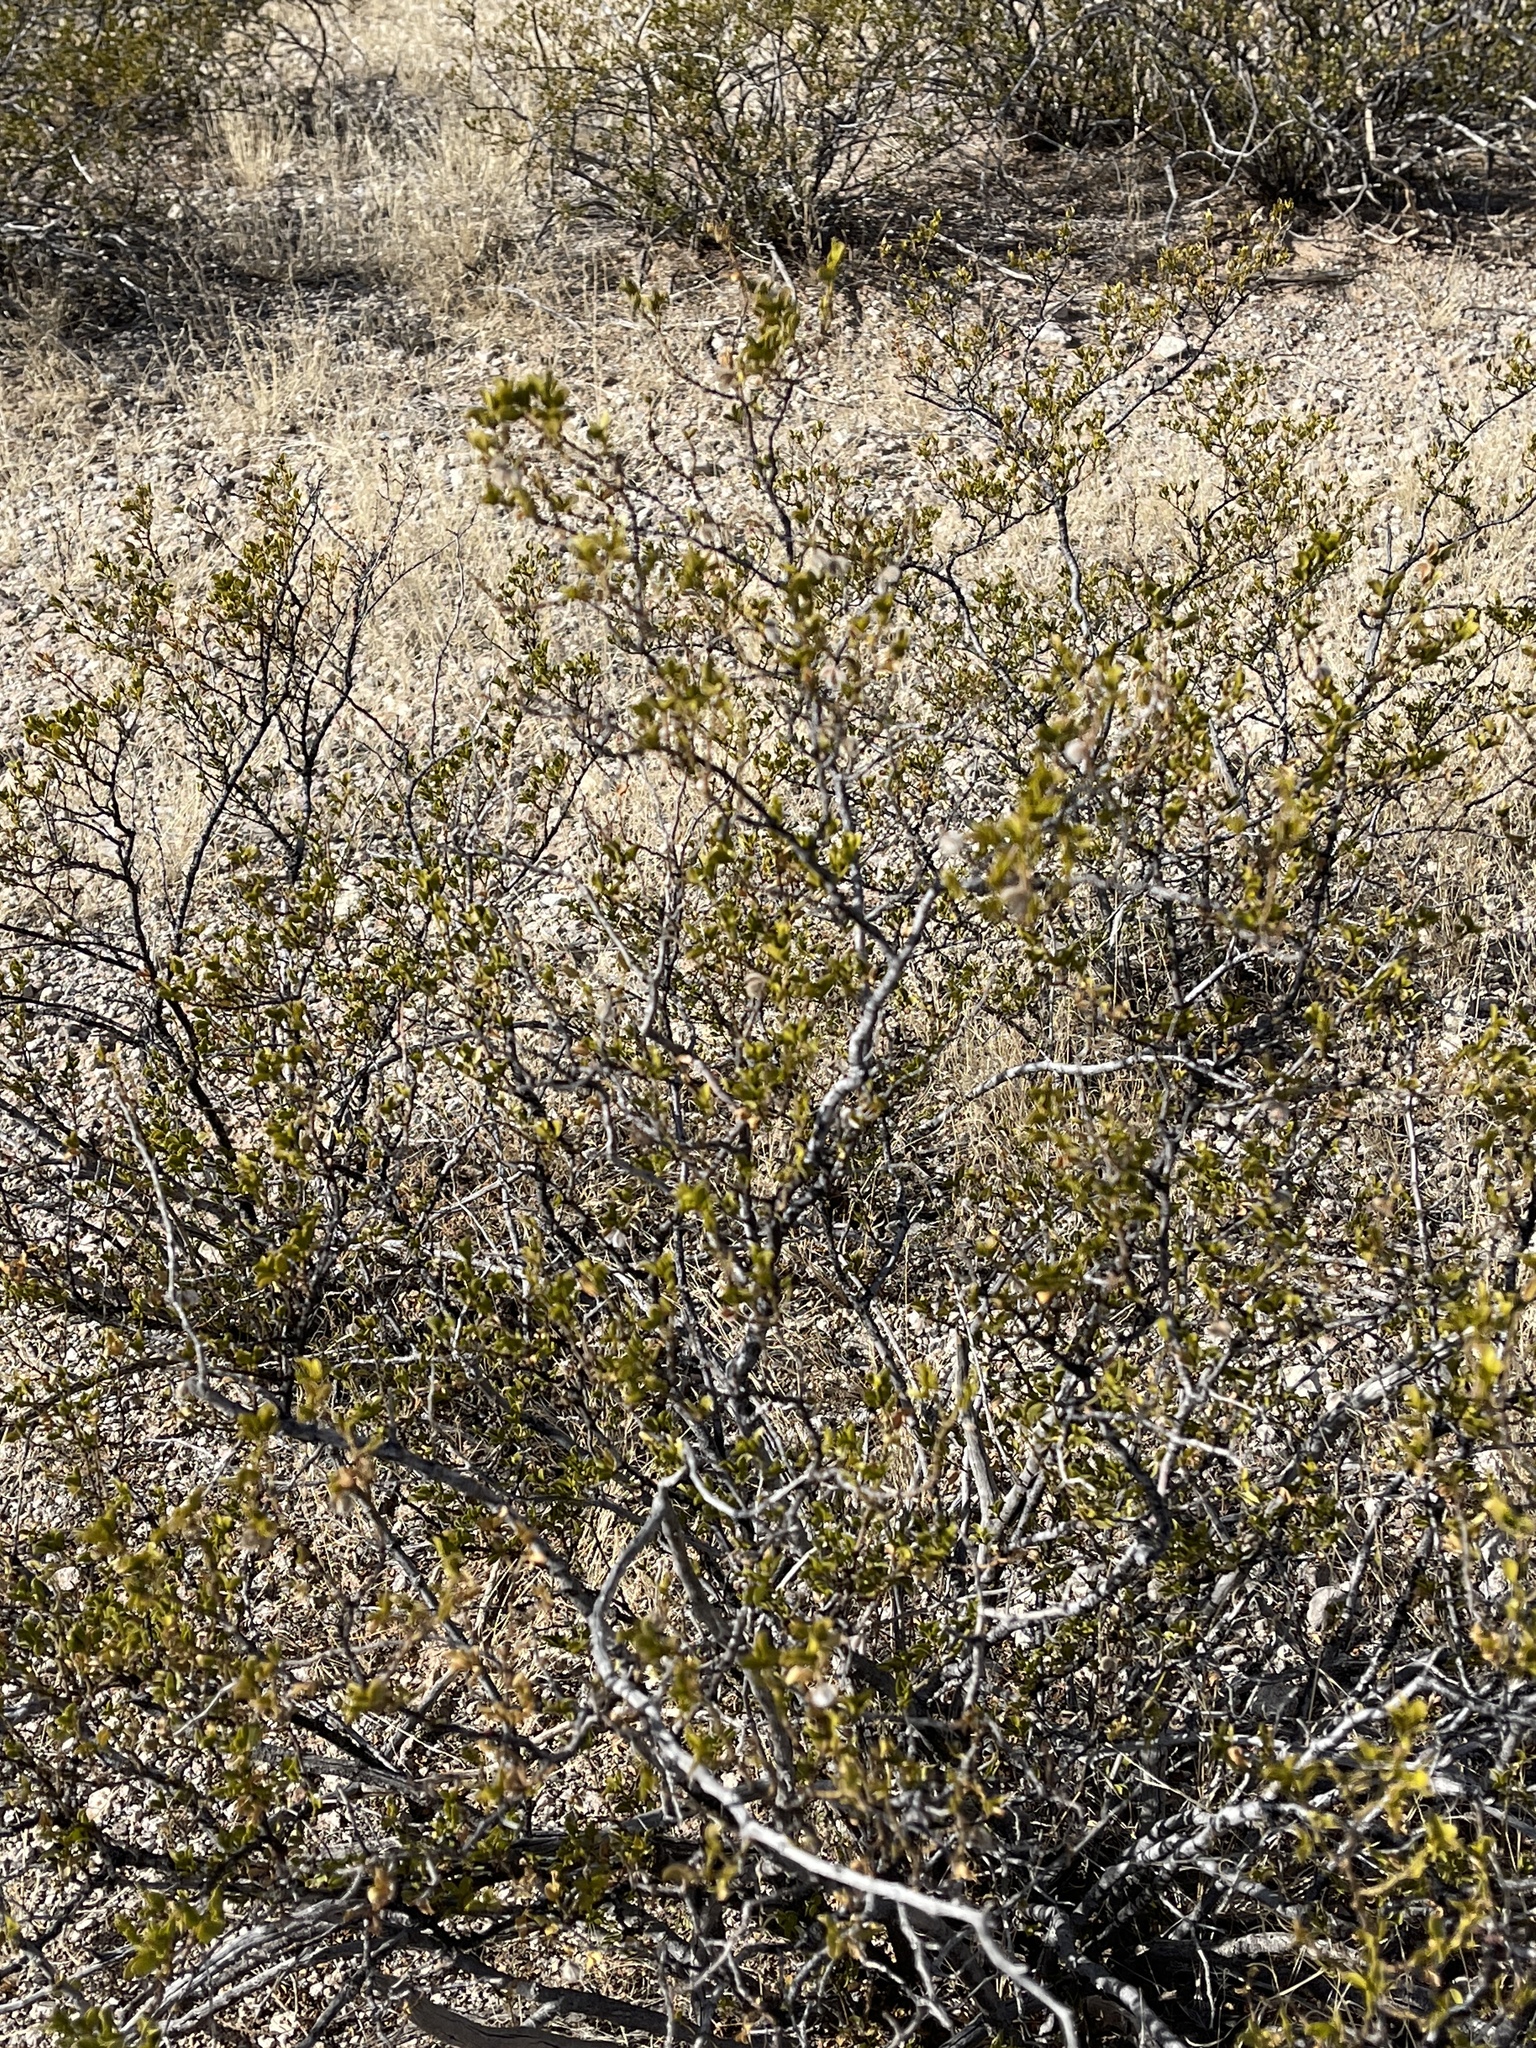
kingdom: Plantae
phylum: Tracheophyta
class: Magnoliopsida
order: Zygophyllales
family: Zygophyllaceae
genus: Larrea
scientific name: Larrea tridentata
